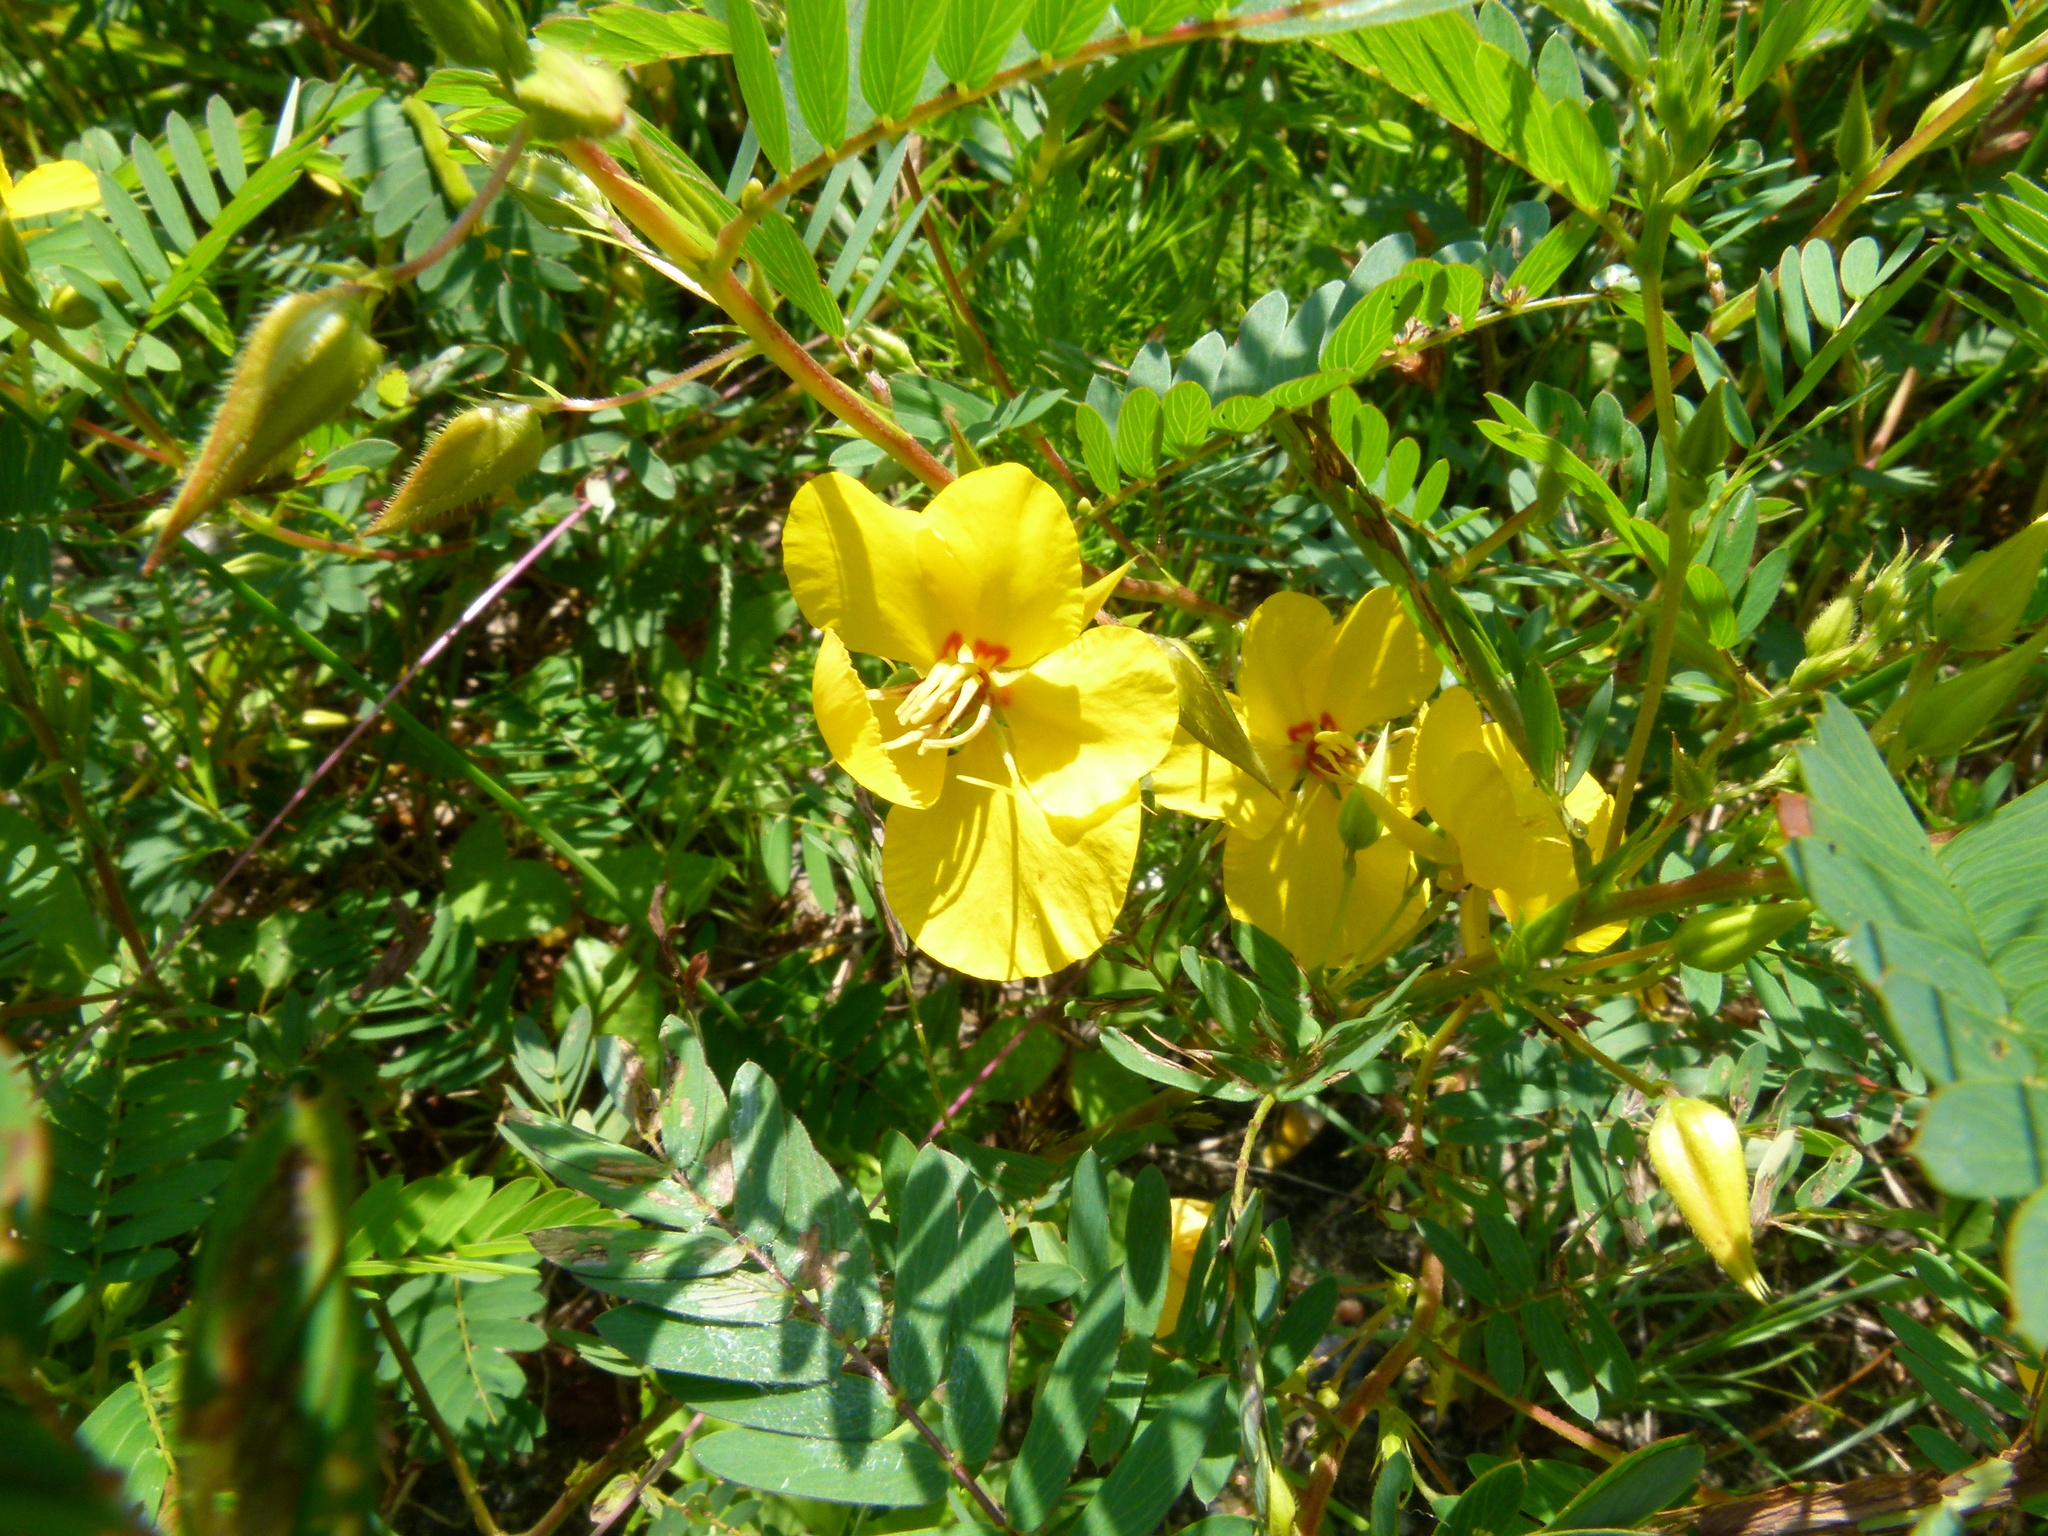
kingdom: Plantae
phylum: Tracheophyta
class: Magnoliopsida
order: Fabales
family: Fabaceae
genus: Chamaecrista
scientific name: Chamaecrista fasciculata
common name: Golden cassia
